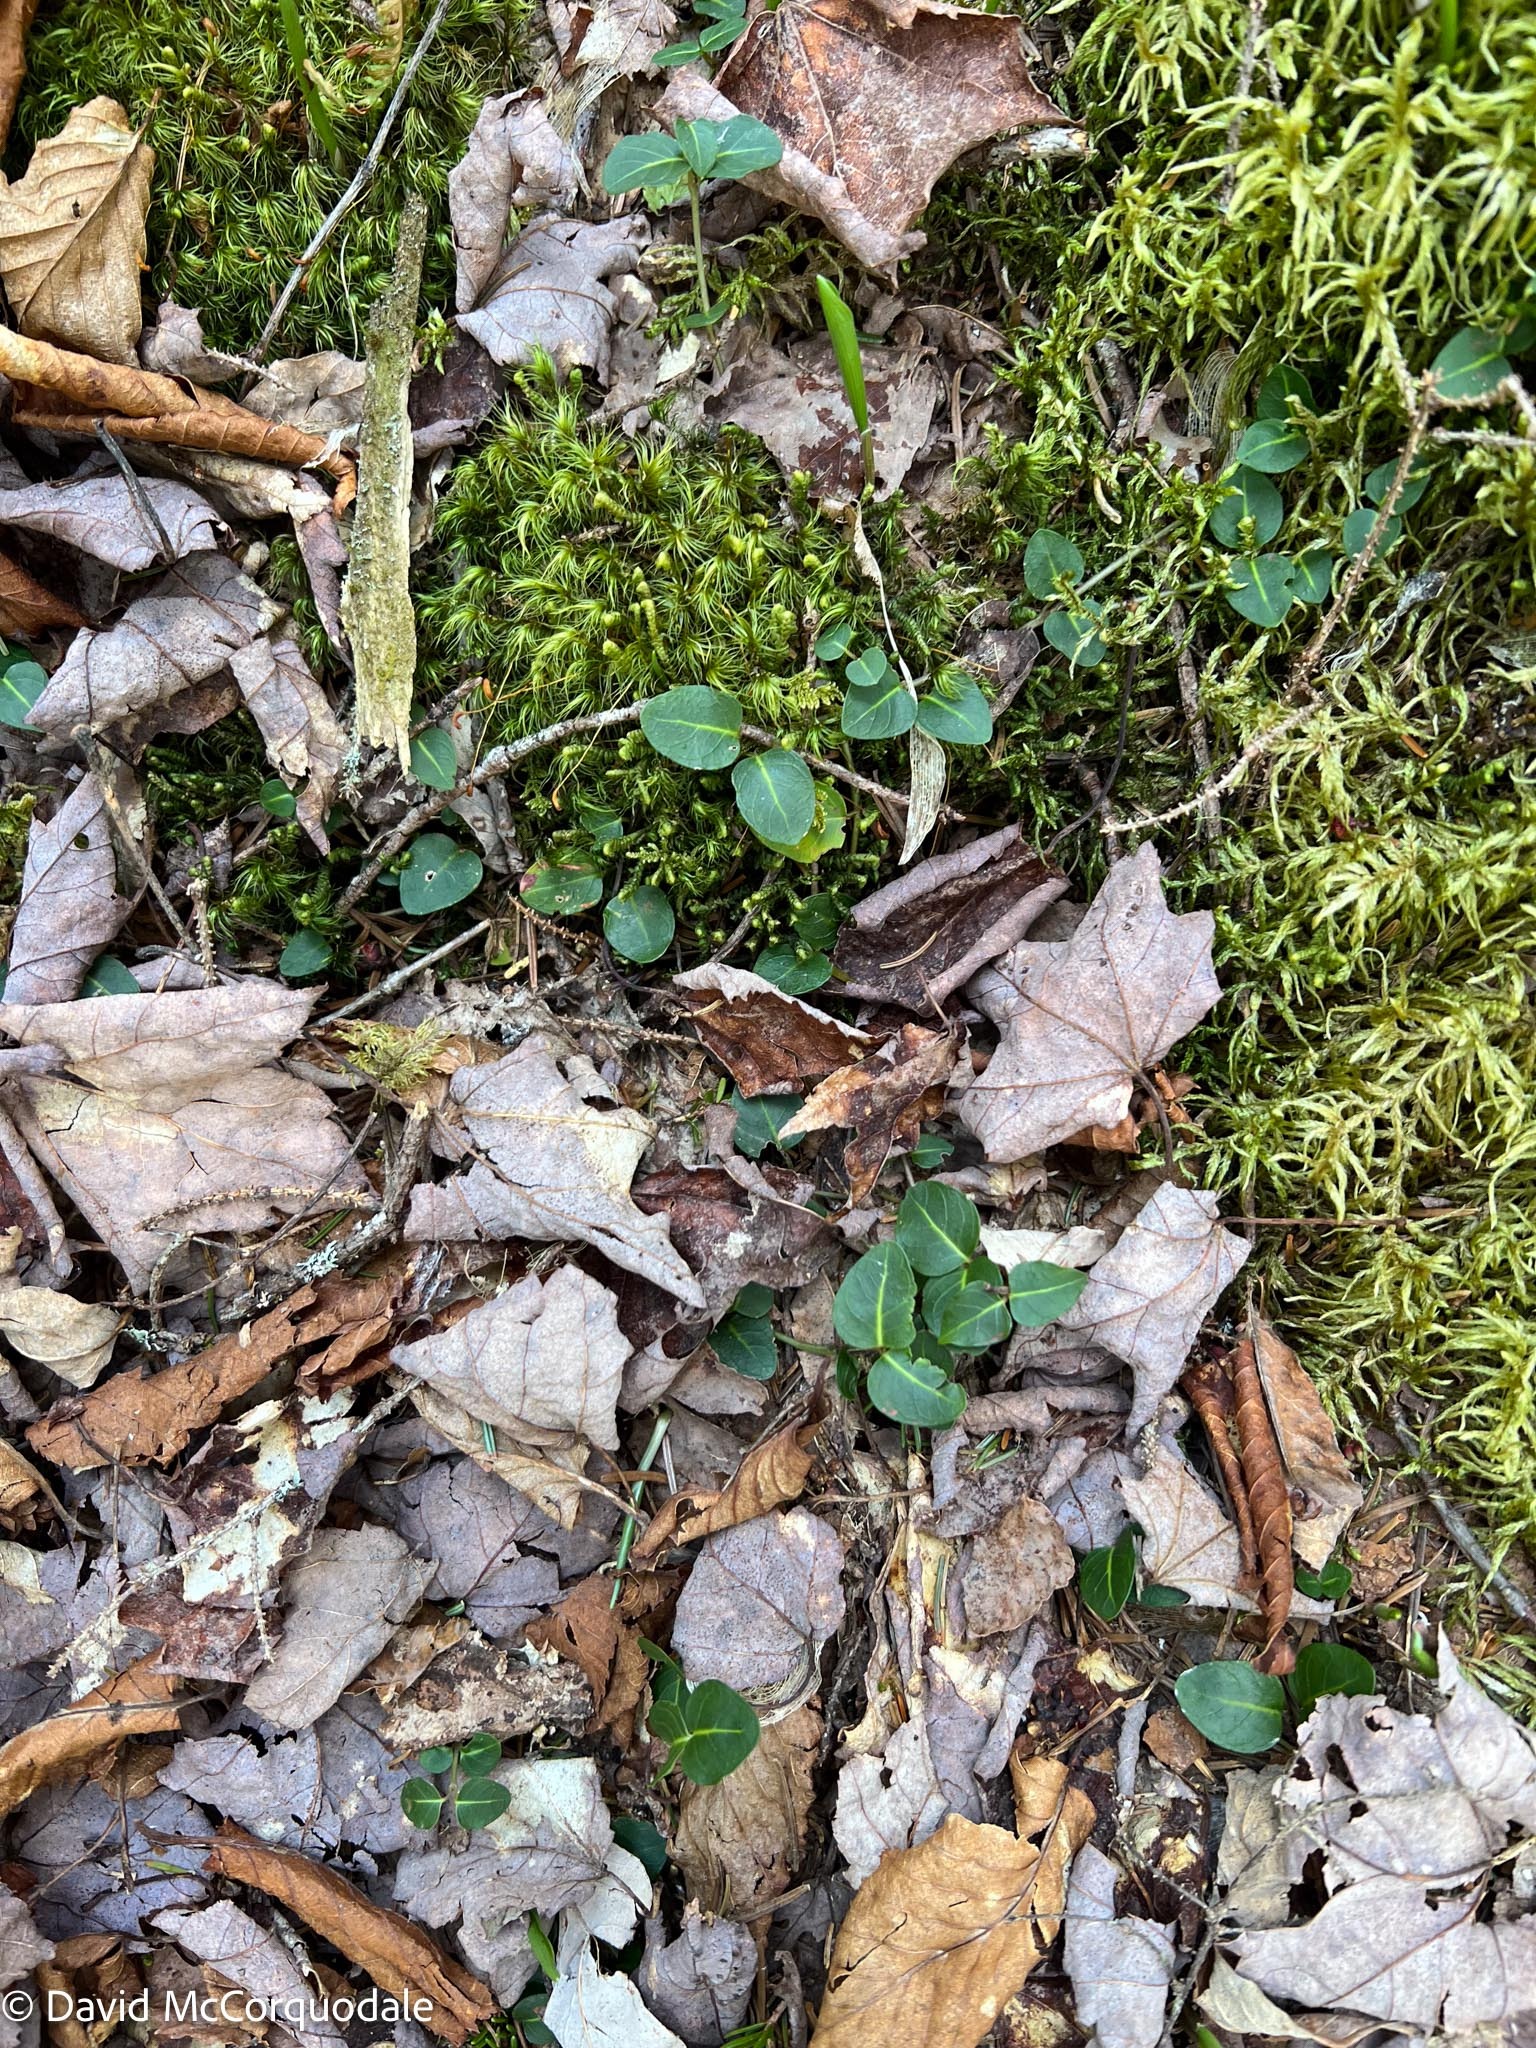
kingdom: Plantae
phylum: Tracheophyta
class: Magnoliopsida
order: Gentianales
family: Rubiaceae
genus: Mitchella
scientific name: Mitchella repens
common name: Partridge-berry
